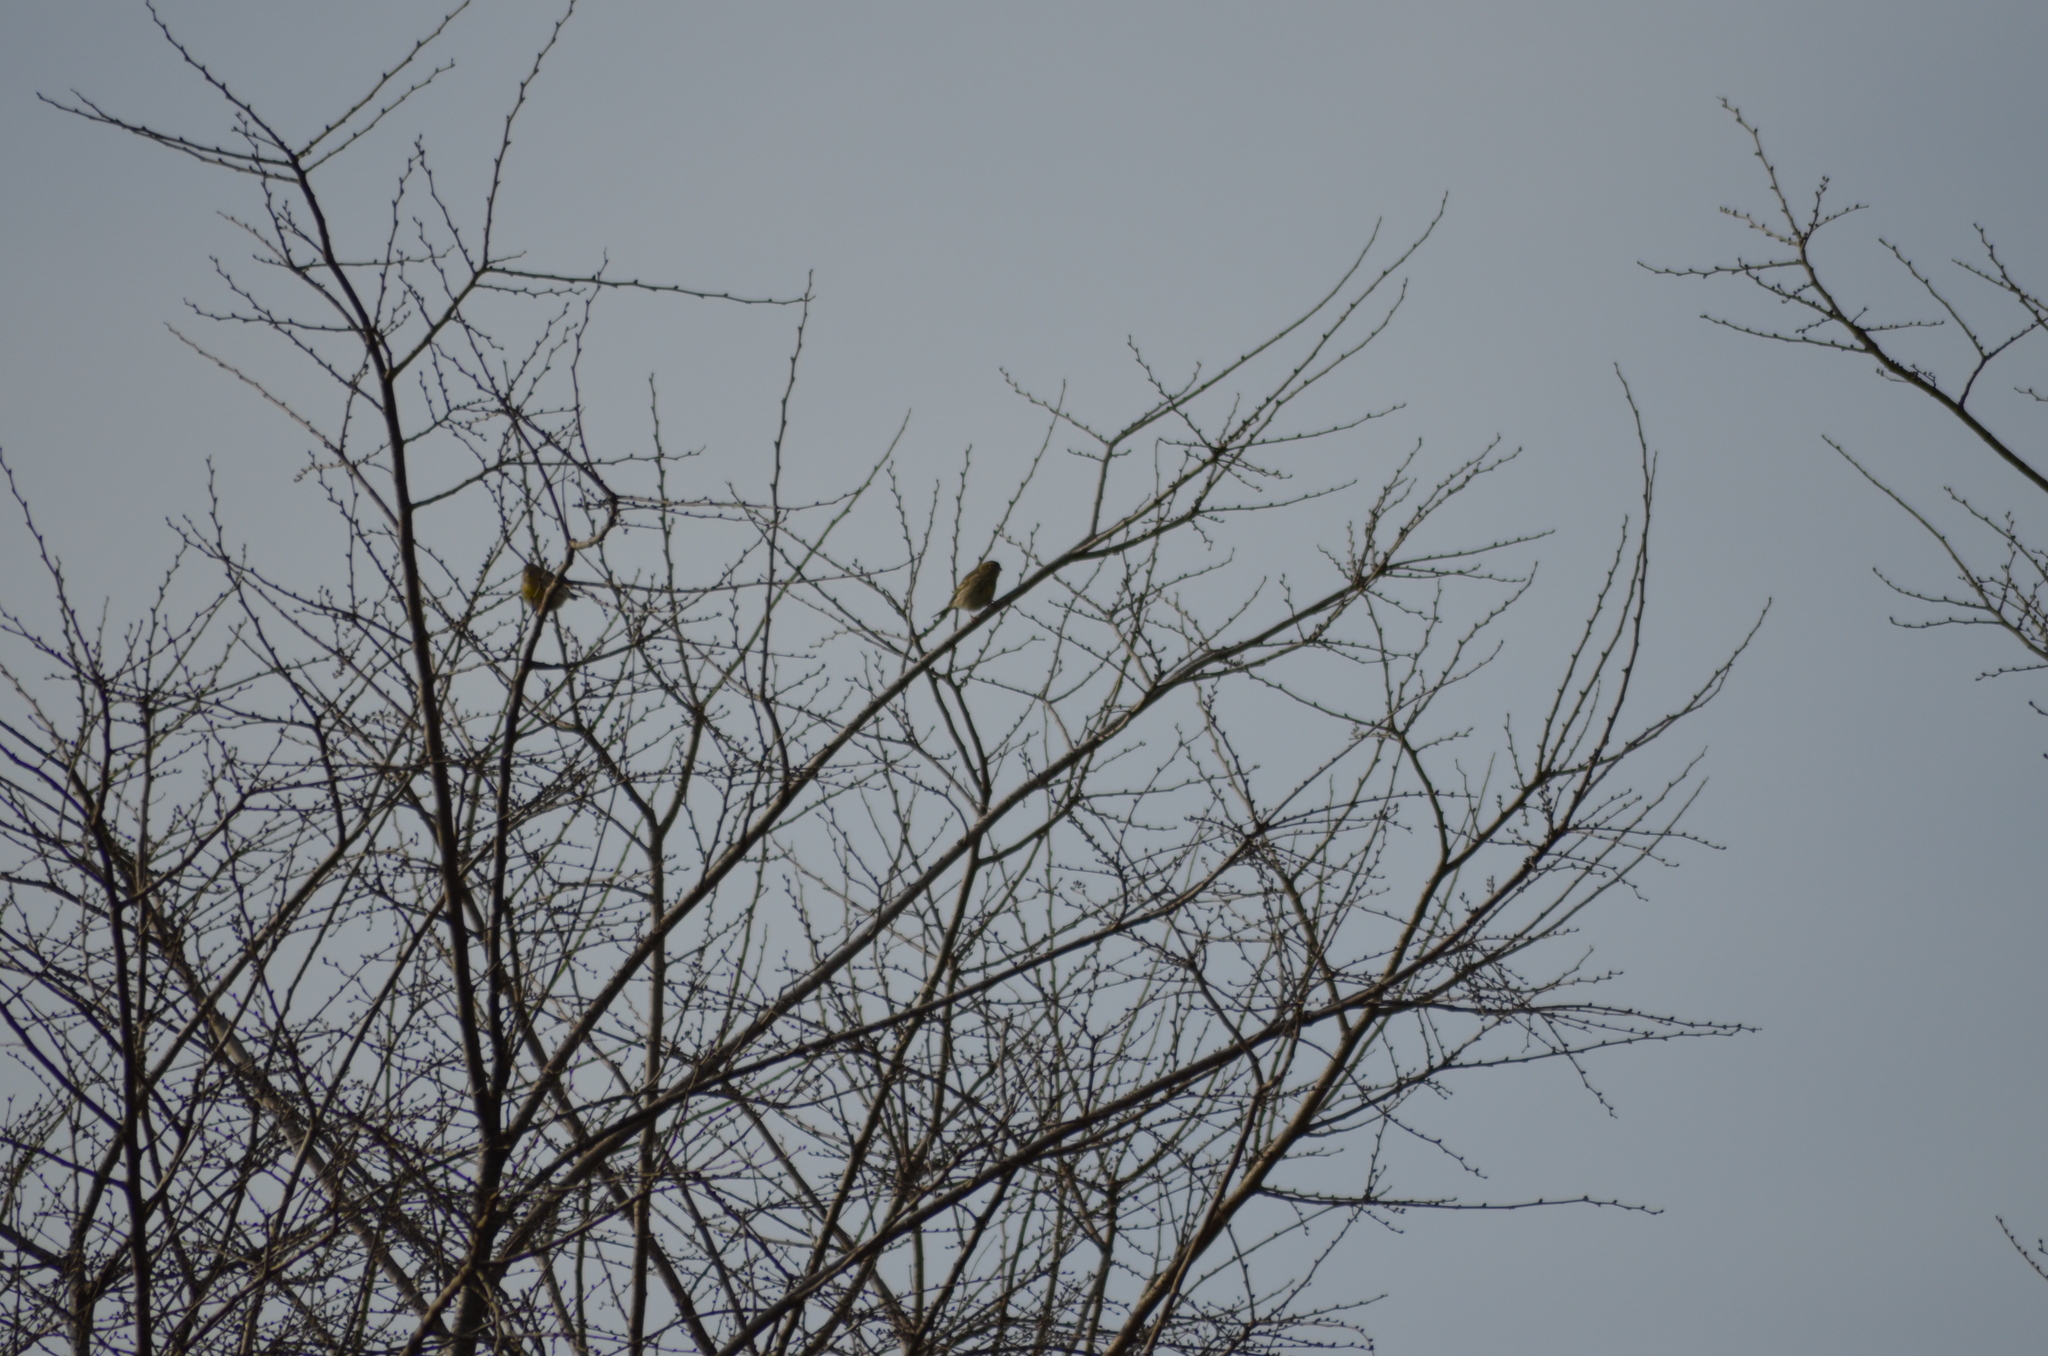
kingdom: Animalia
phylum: Chordata
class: Aves
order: Passeriformes
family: Fringillidae
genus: Serinus
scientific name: Serinus serinus
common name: European serin
